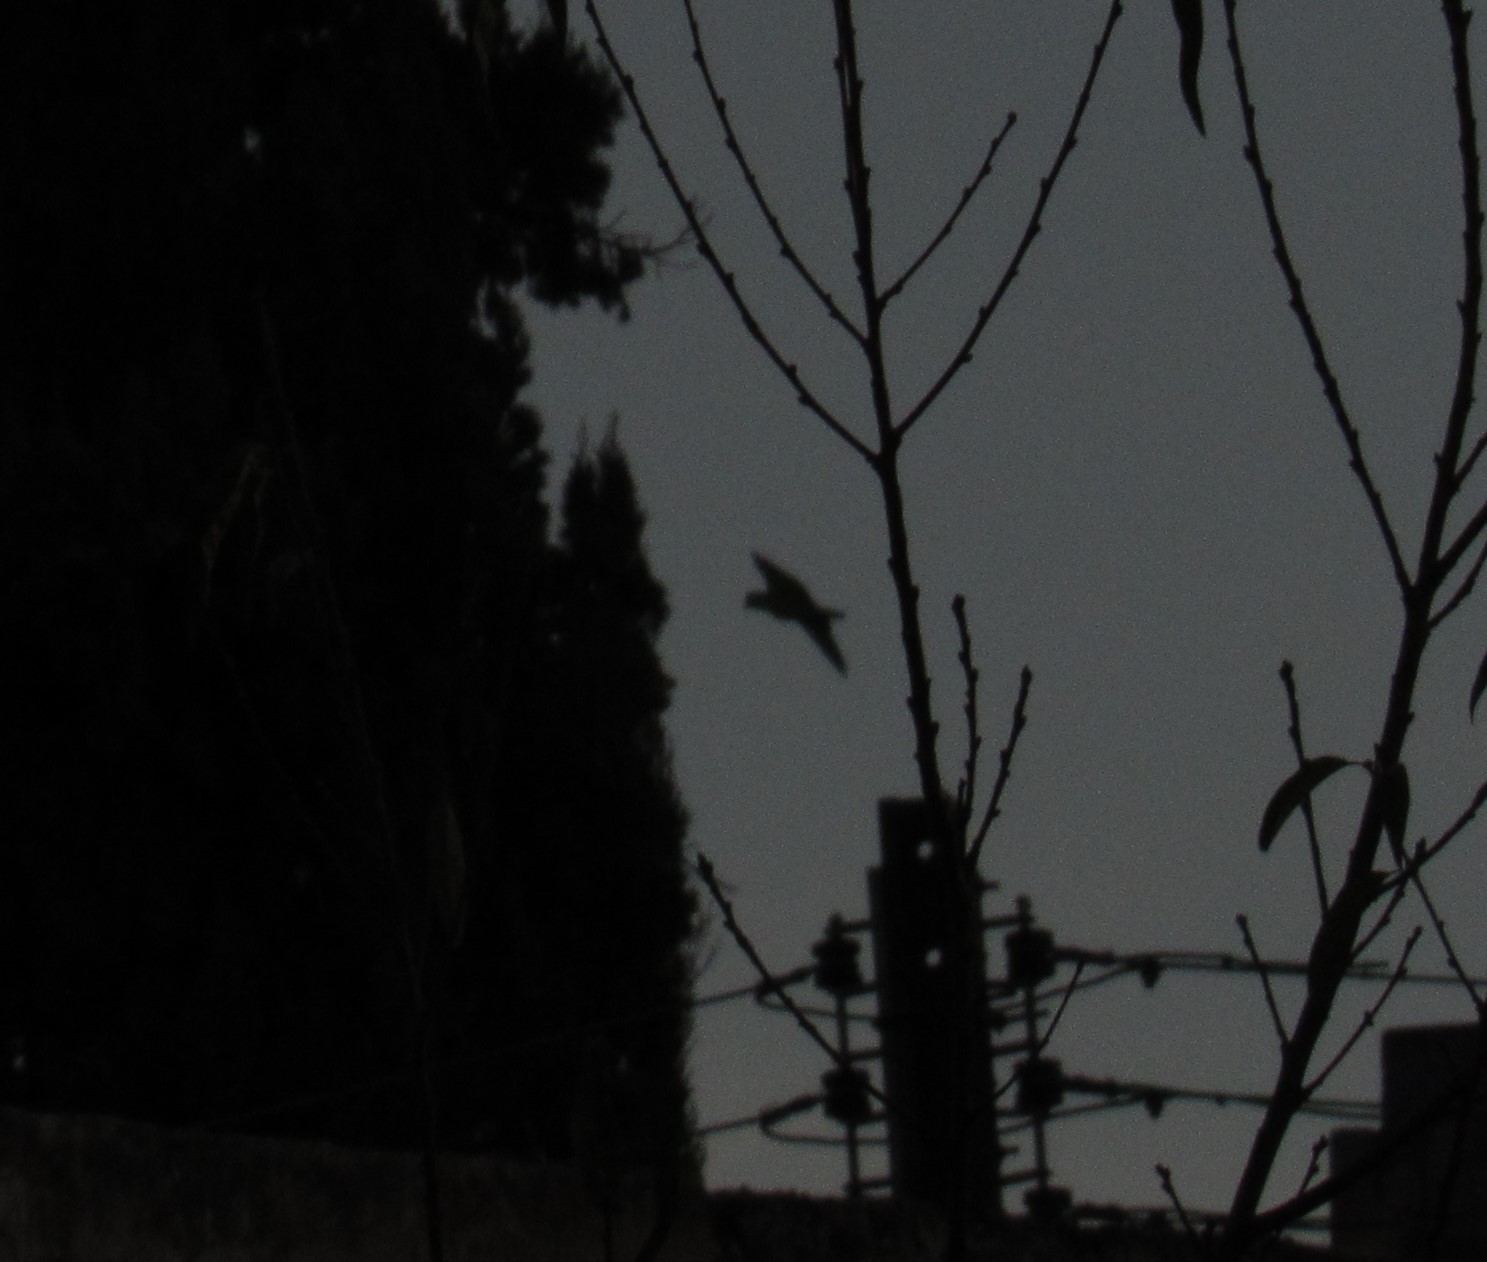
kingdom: Animalia
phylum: Chordata
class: Aves
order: Psittaciformes
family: Psittacidae
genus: Amazona
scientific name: Amazona
